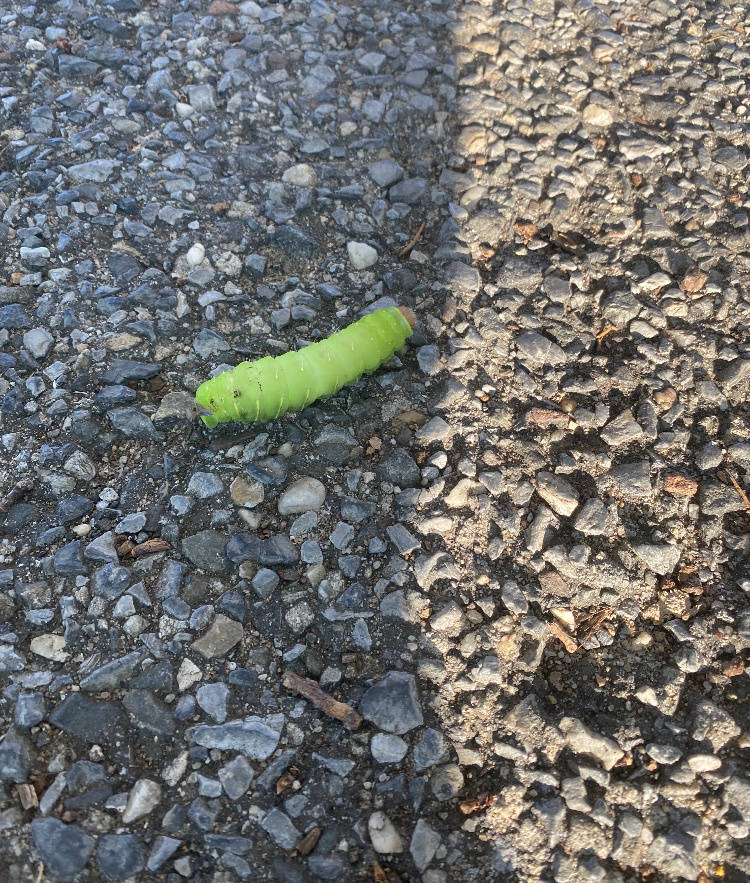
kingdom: Animalia
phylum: Arthropoda
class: Insecta
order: Lepidoptera
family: Saturniidae
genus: Antheraea
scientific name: Antheraea polyphemus
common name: Polyphemus moth
